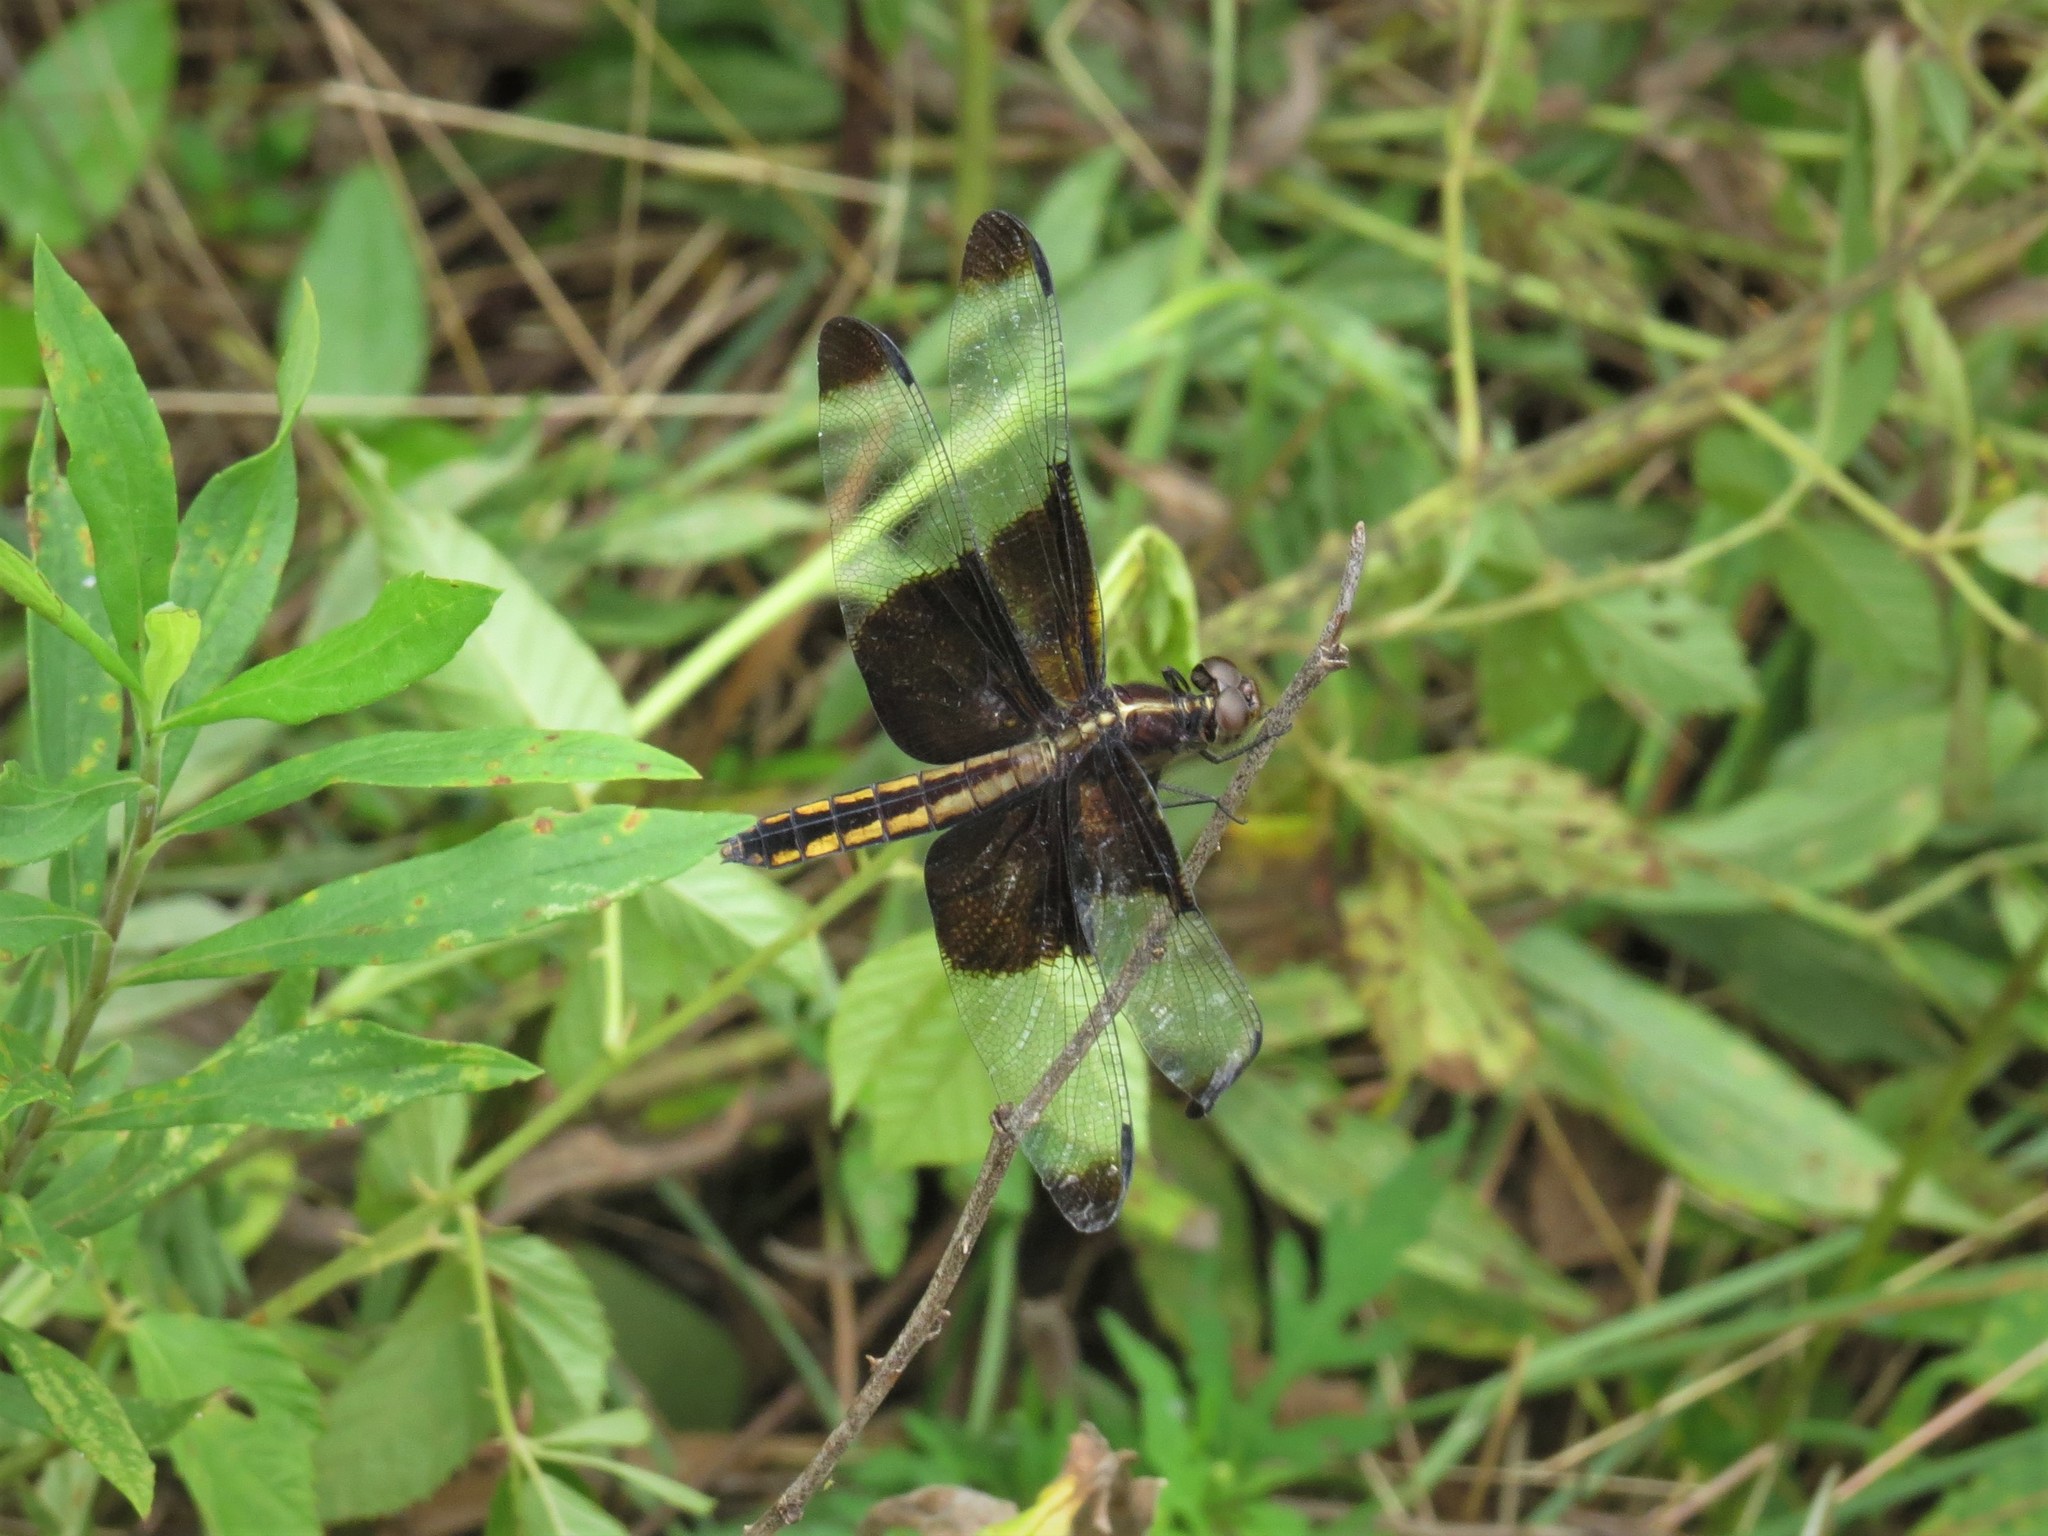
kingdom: Animalia
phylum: Arthropoda
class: Insecta
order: Odonata
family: Libellulidae
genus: Libellula
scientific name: Libellula luctuosa
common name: Widow skimmer
